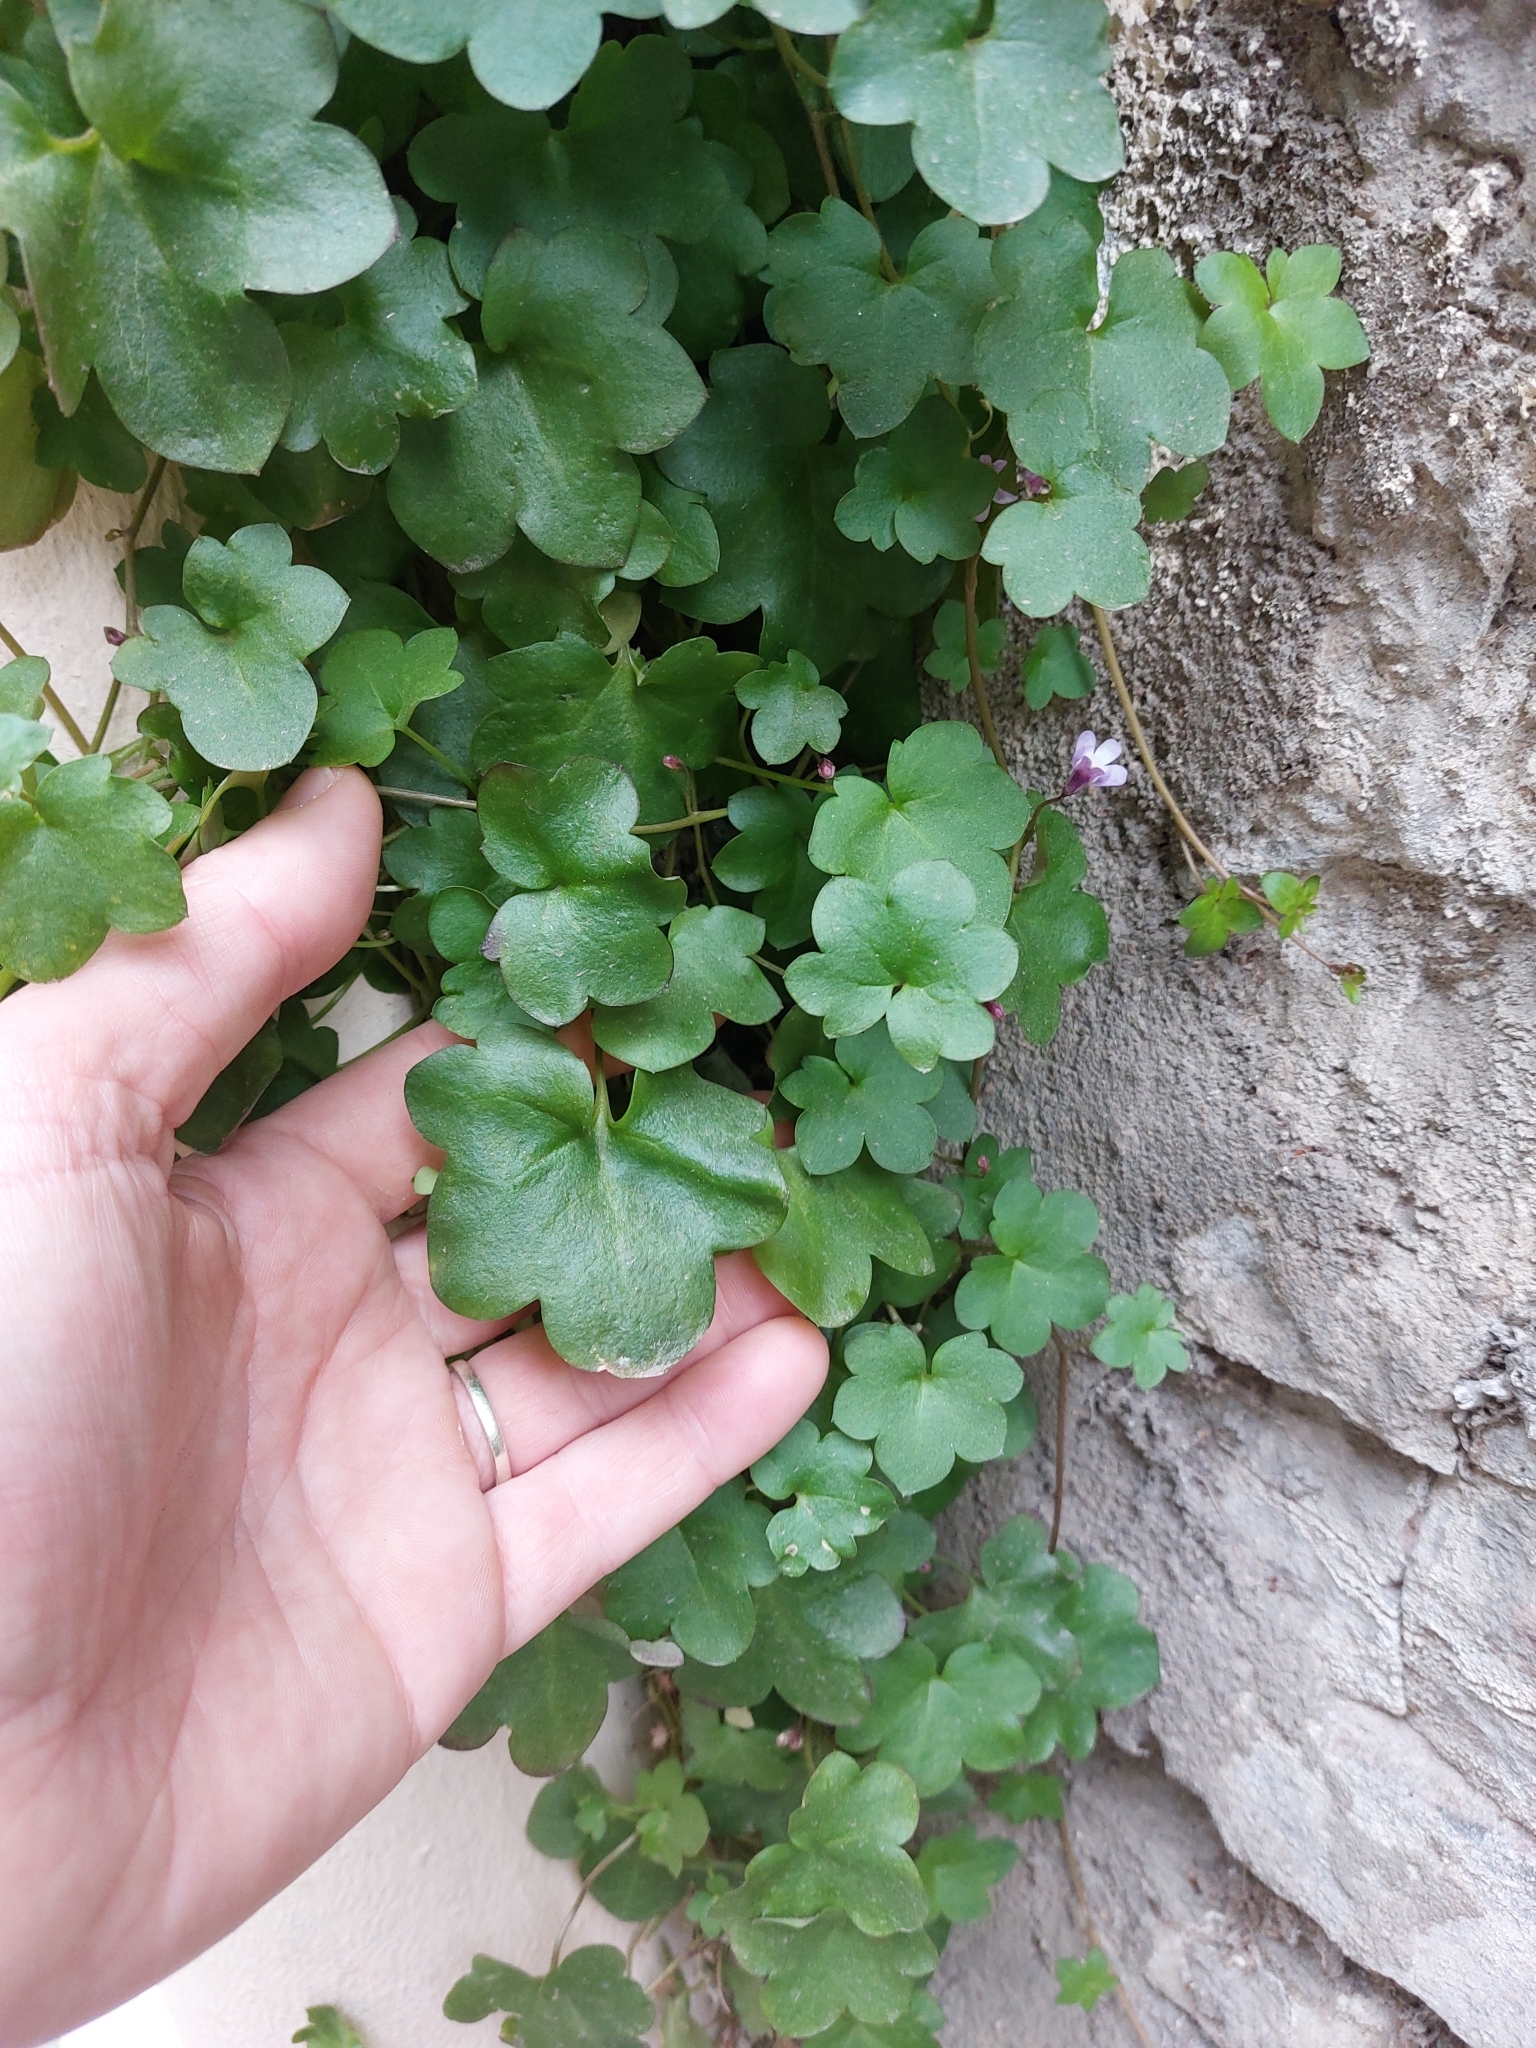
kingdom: Plantae
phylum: Tracheophyta
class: Magnoliopsida
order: Lamiales
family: Plantaginaceae
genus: Cymbalaria
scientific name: Cymbalaria muralis
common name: Ivy-leaved toadflax
